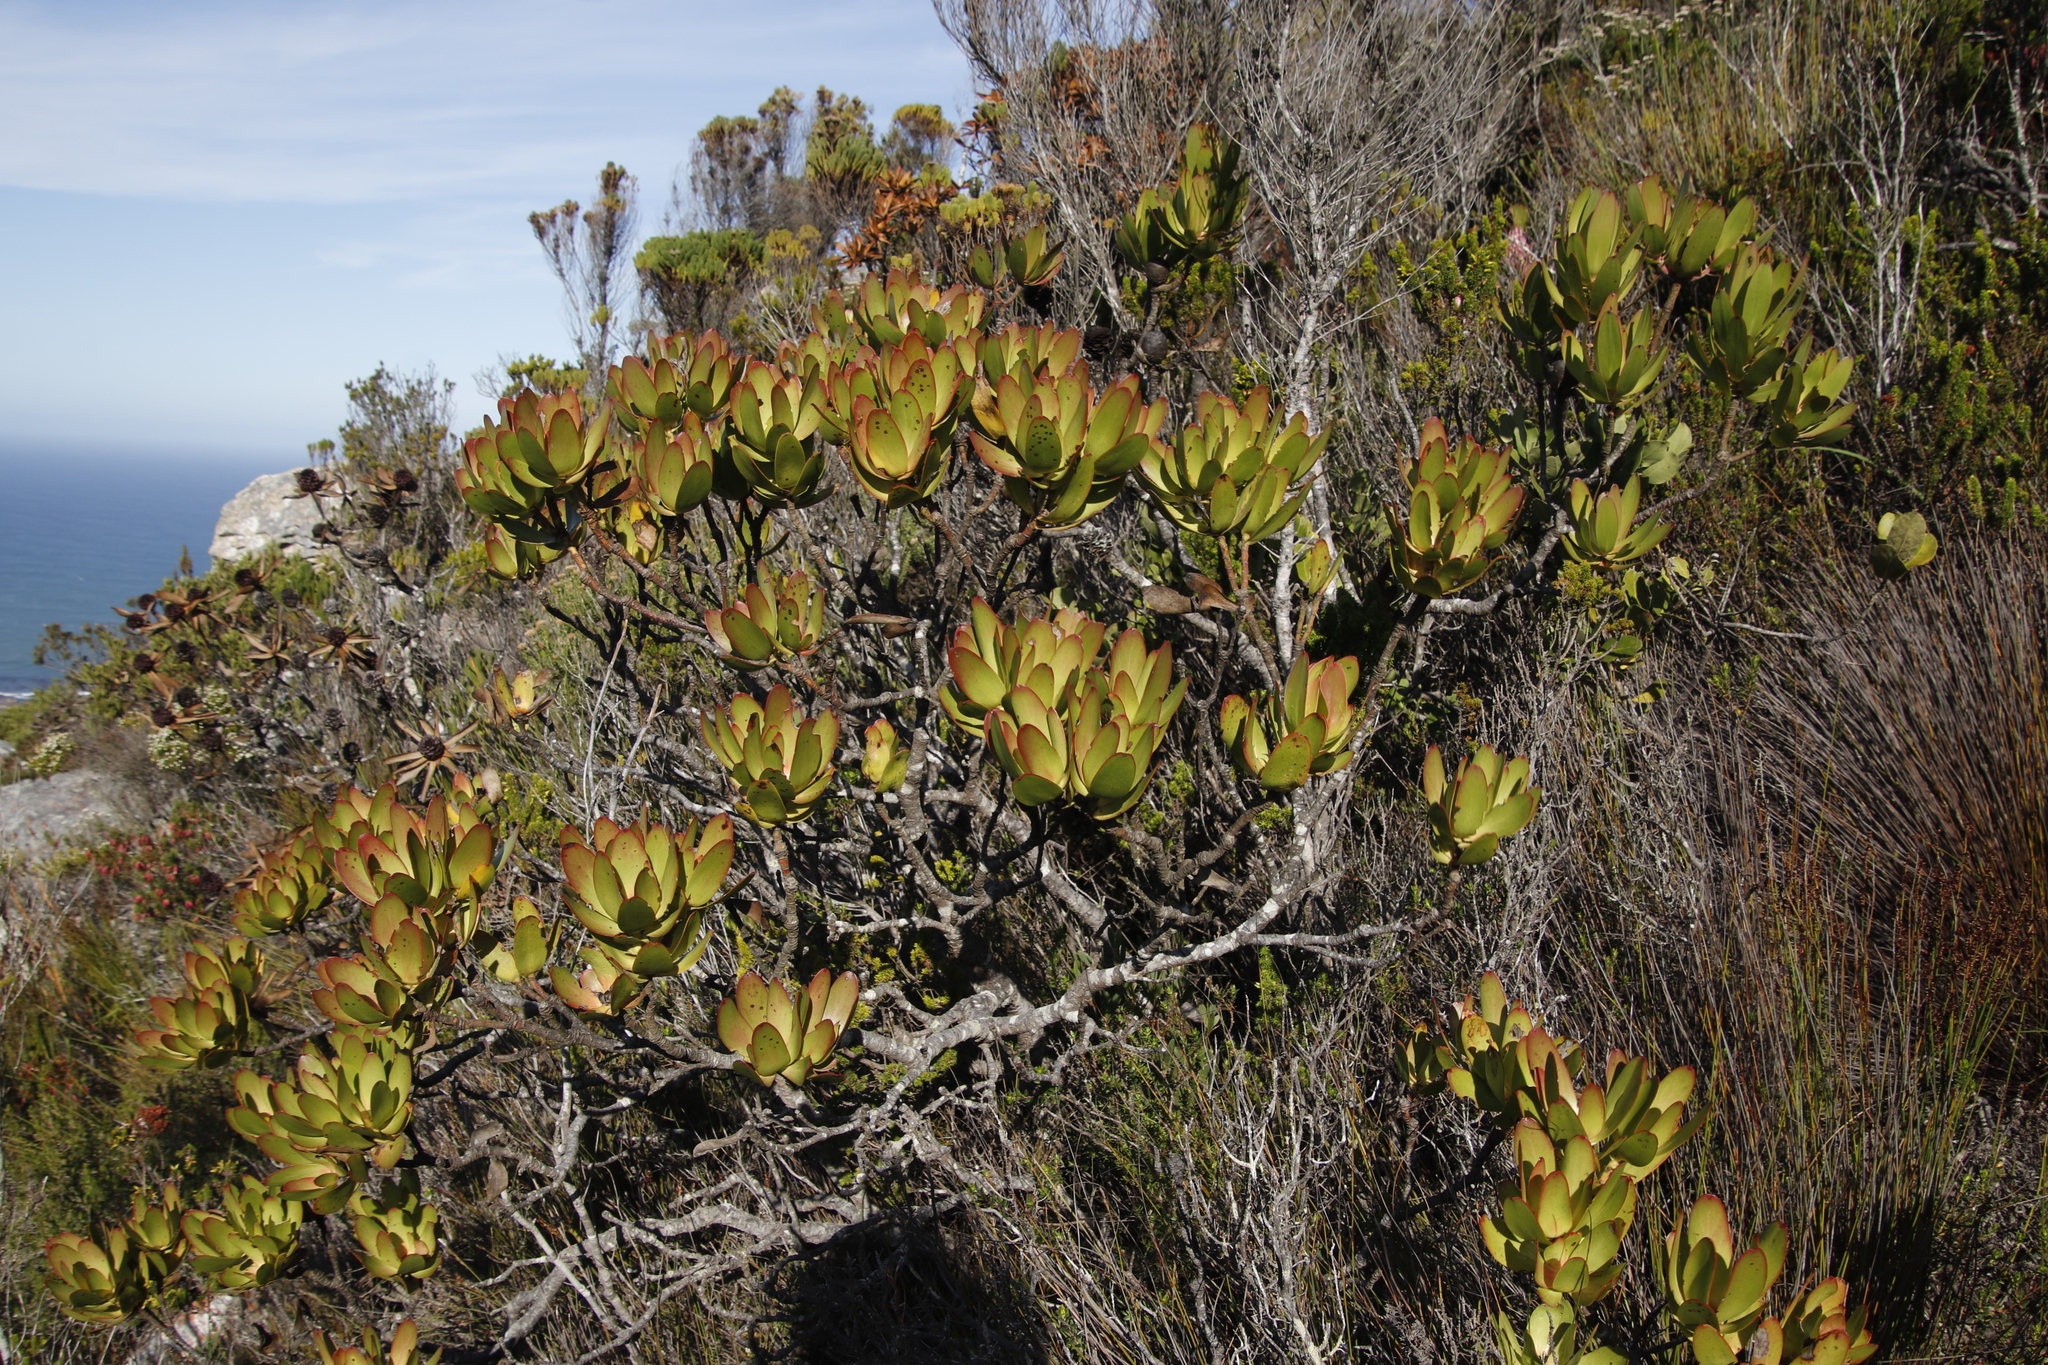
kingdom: Plantae
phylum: Tracheophyta
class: Magnoliopsida
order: Proteales
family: Proteaceae
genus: Leucadendron
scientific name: Leucadendron gandogeri
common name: Broad-leaf conebush
